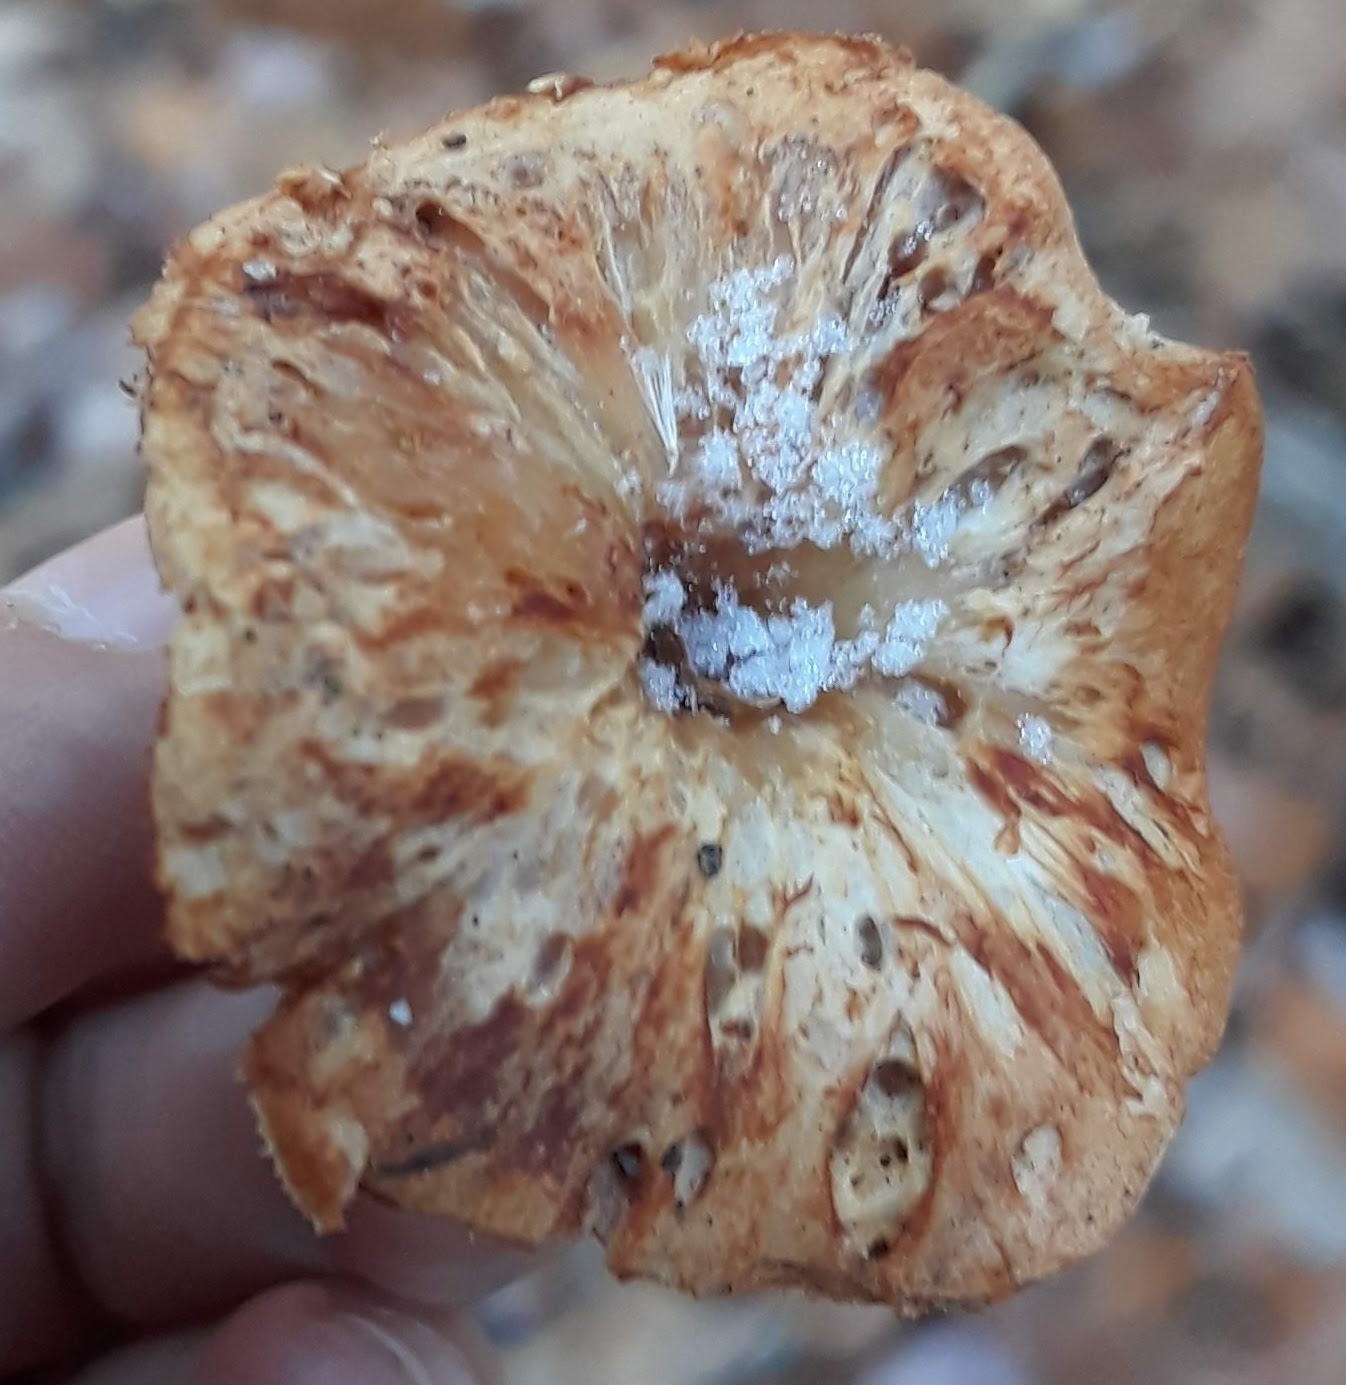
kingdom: Fungi
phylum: Basidiomycota
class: Agaricomycetes
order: Cantharellales
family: Hydnaceae
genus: Hydnum
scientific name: Hydnum umbilicatum
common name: Umbilicate hedgehog
